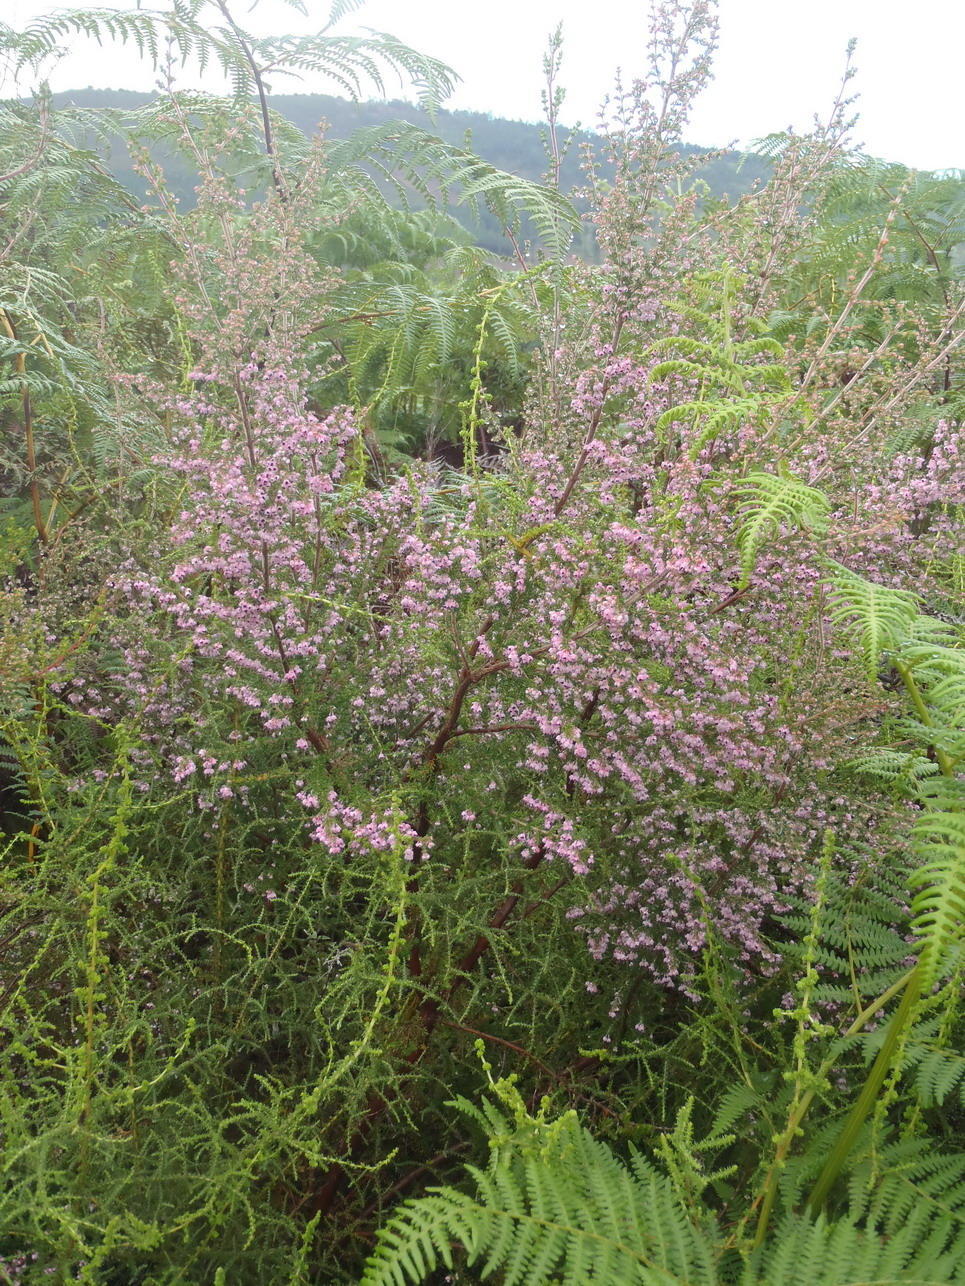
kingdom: Plantae
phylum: Tracheophyta
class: Magnoliopsida
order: Ericales
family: Ericaceae
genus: Erica
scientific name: Erica canaliculata
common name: Hairy grey heather
